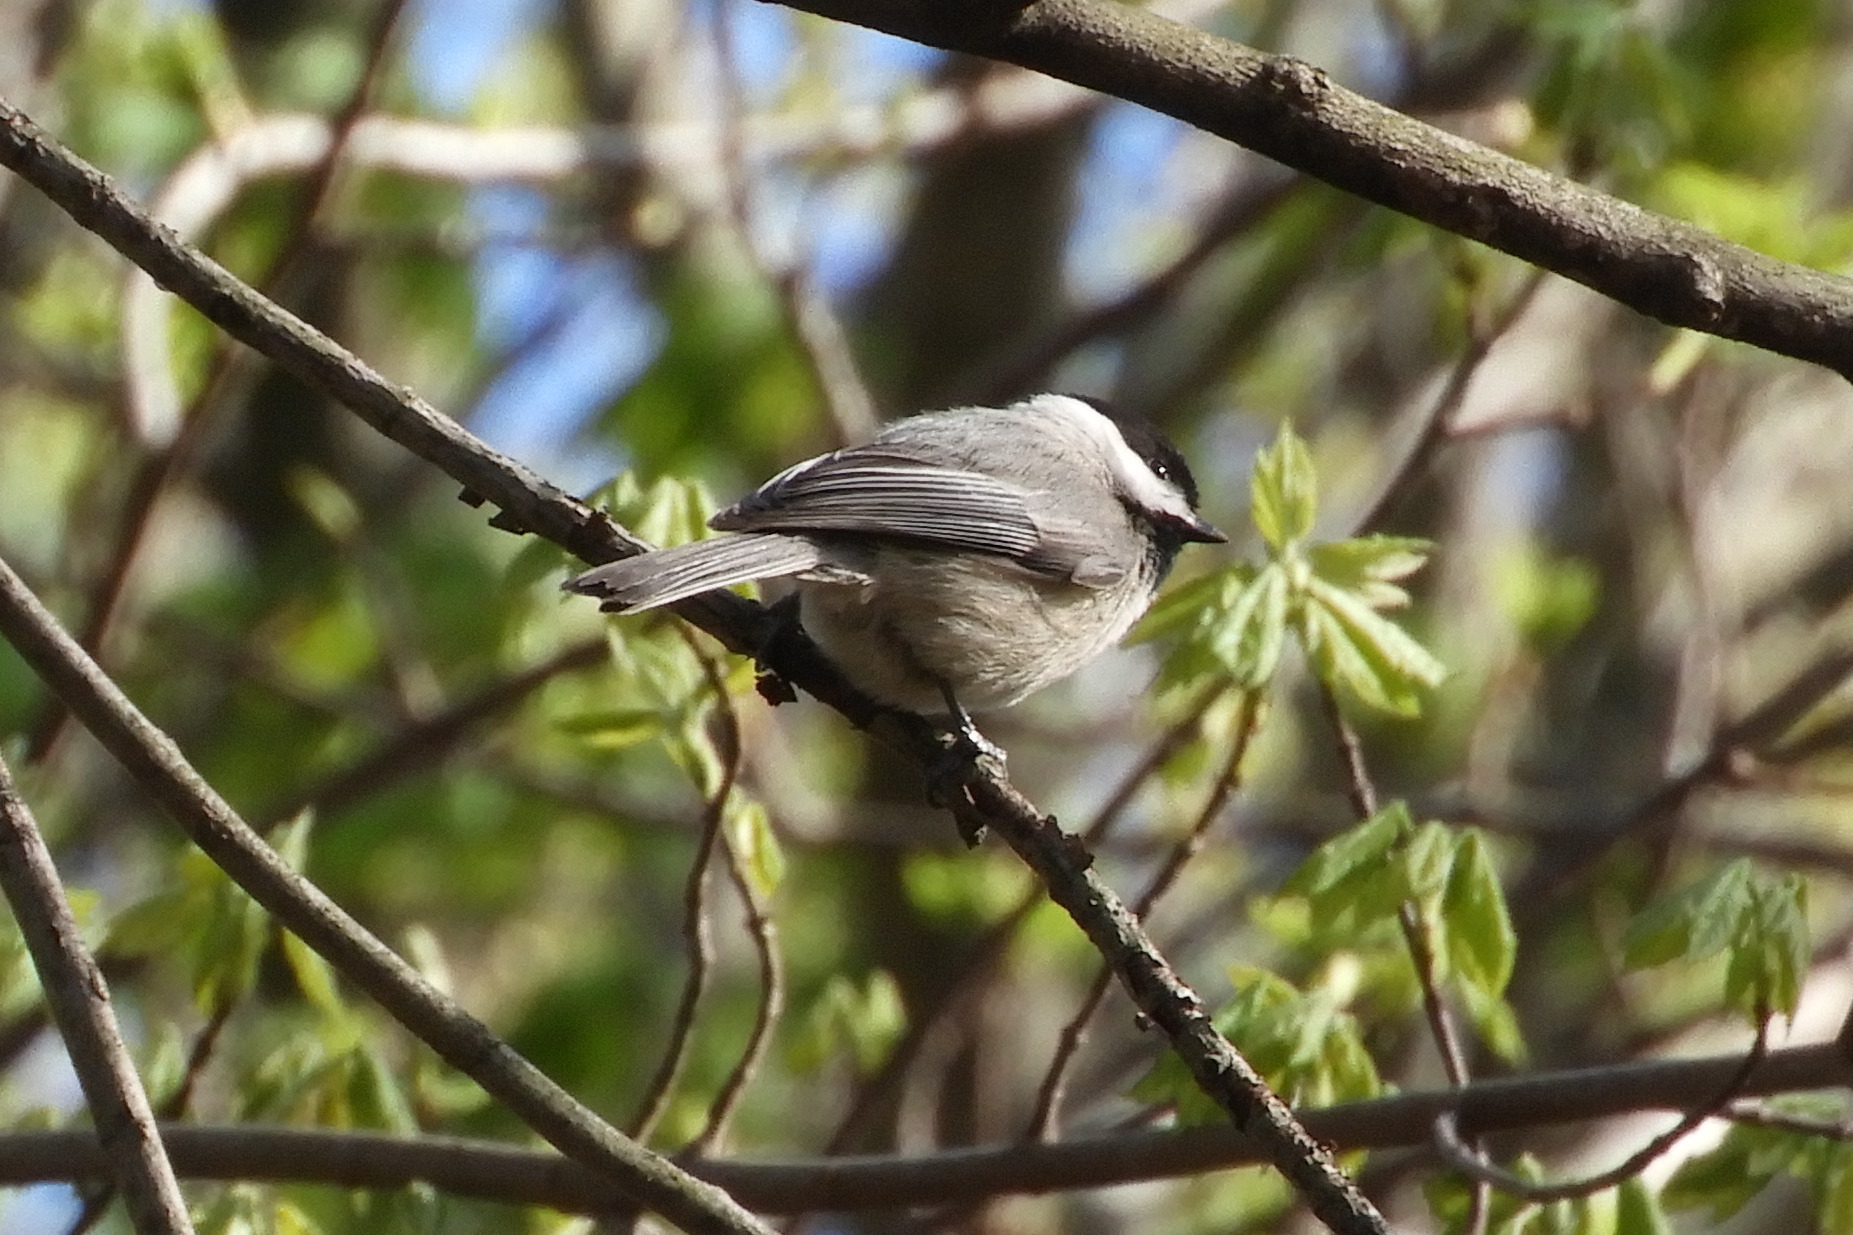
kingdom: Animalia
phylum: Chordata
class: Aves
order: Passeriformes
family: Paridae
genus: Poecile
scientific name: Poecile carolinensis
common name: Carolina chickadee
